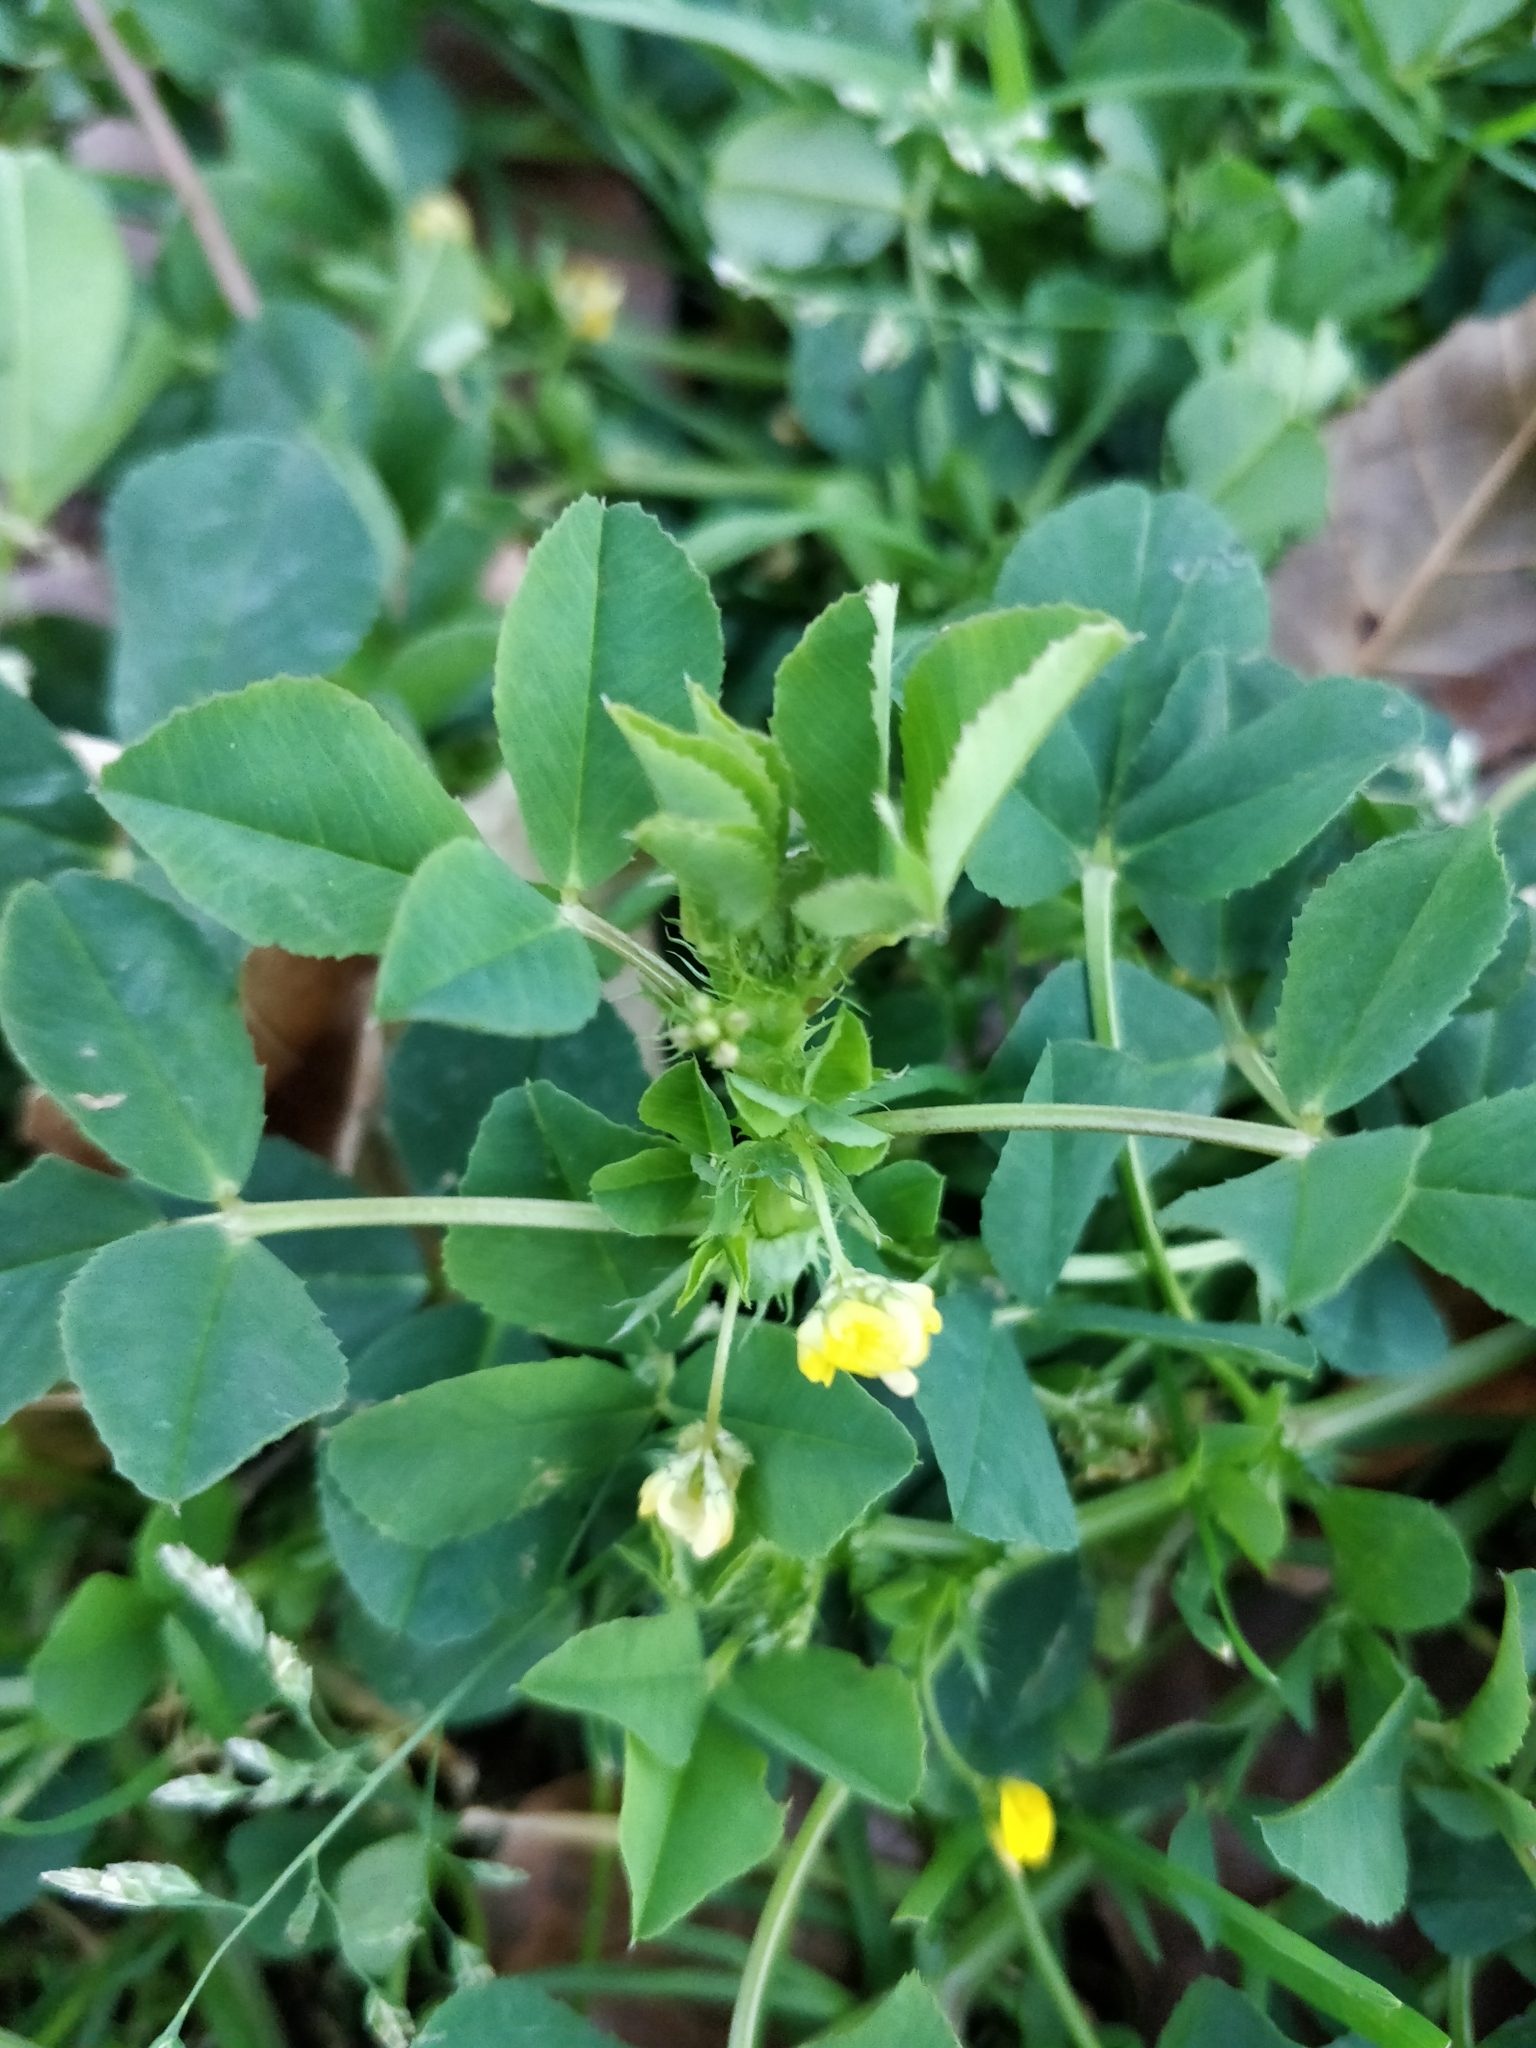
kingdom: Plantae
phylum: Tracheophyta
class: Magnoliopsida
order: Fabales
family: Fabaceae
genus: Medicago
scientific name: Medicago polymorpha
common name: Burclover
